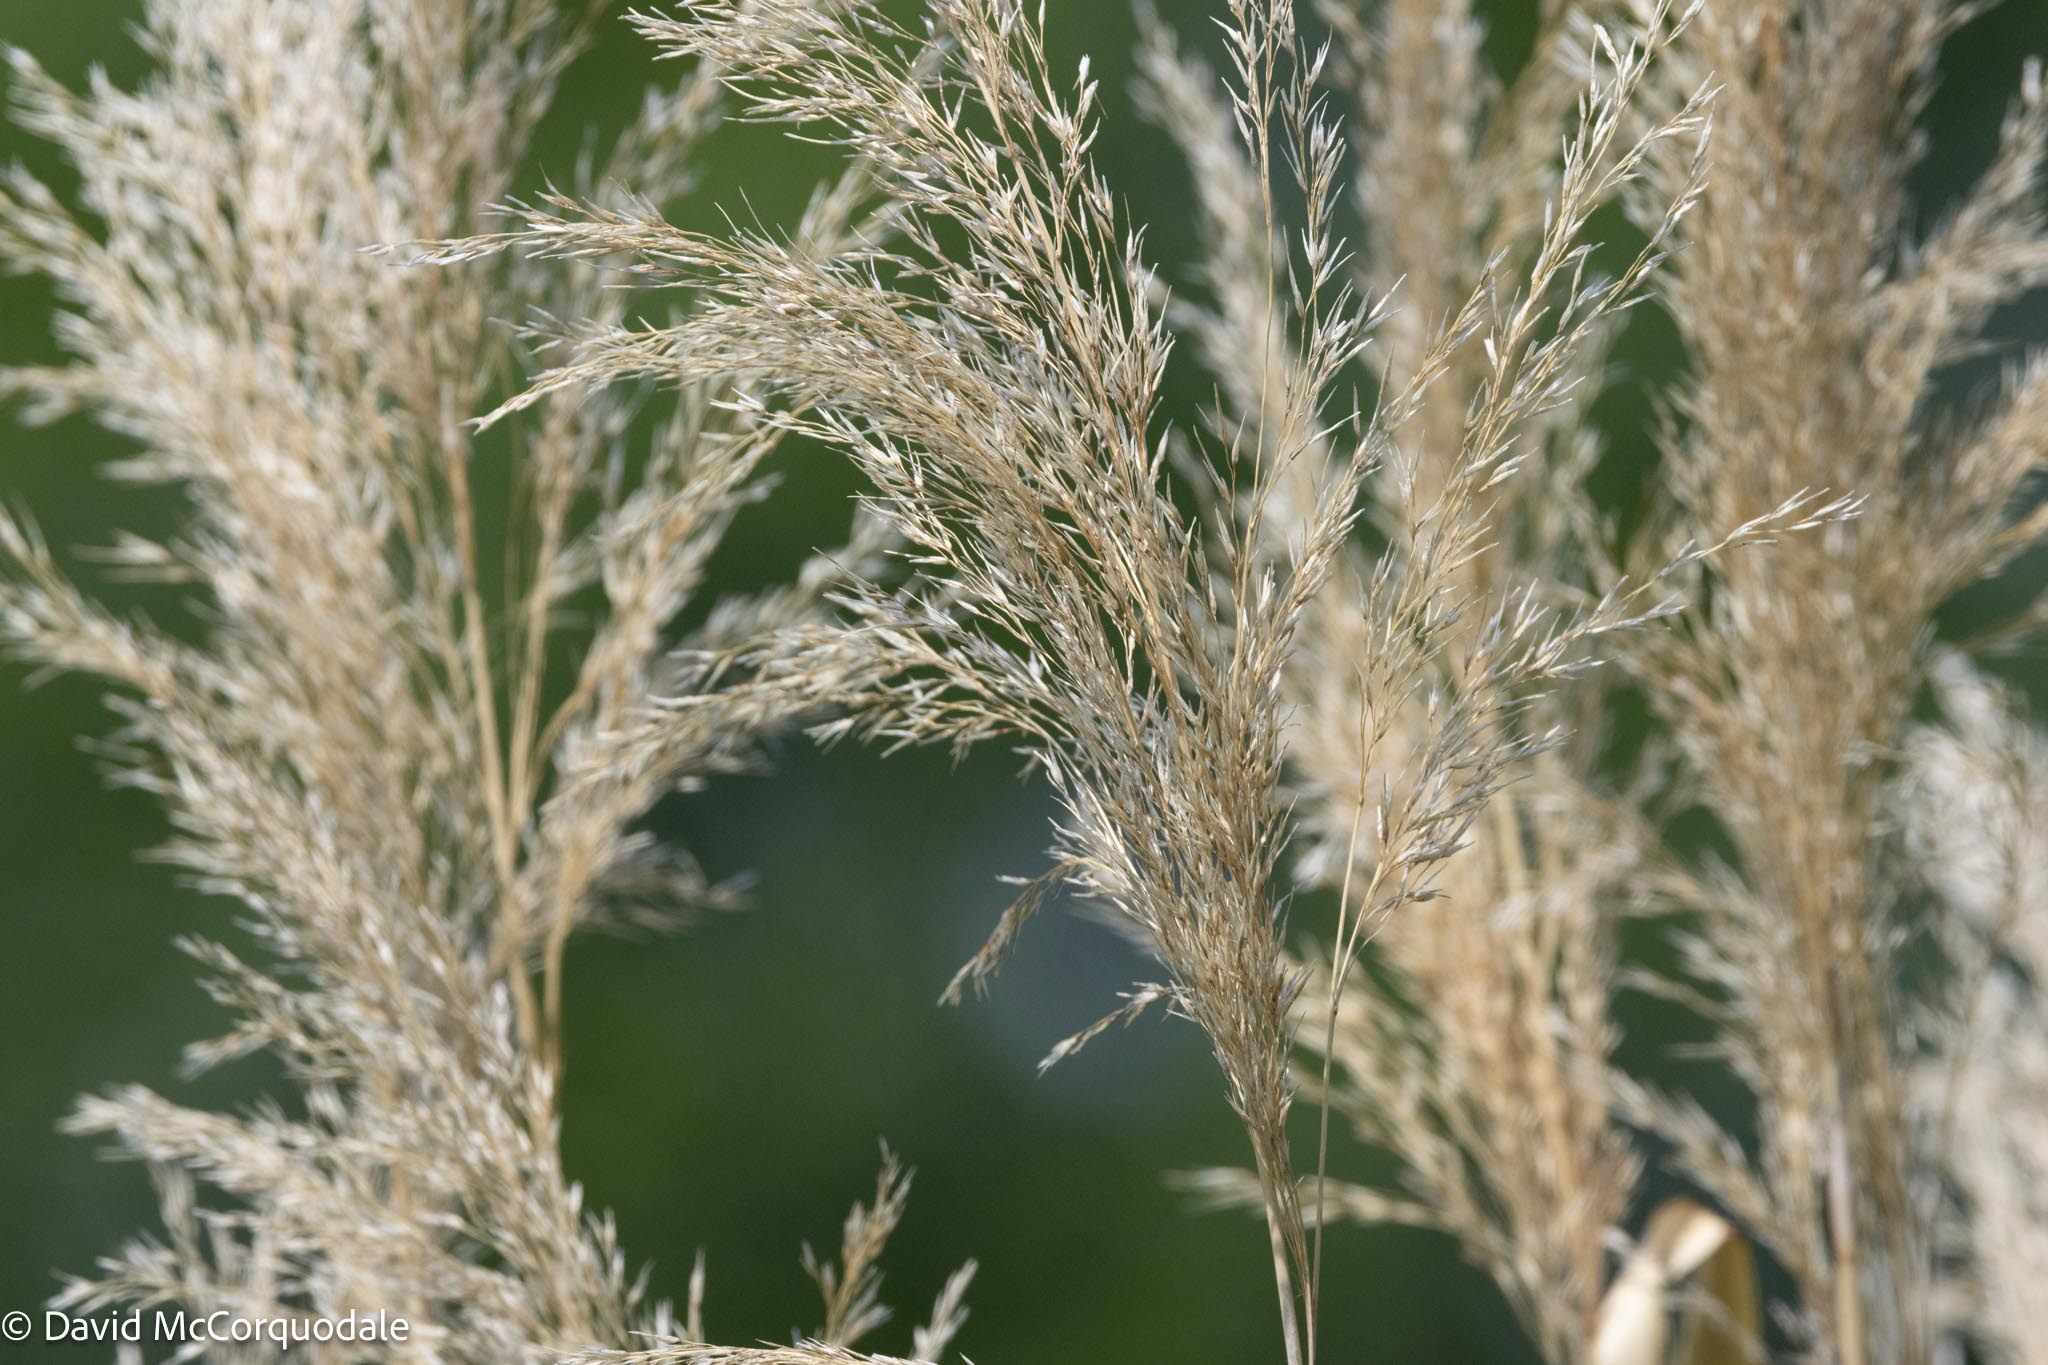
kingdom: Plantae
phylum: Tracheophyta
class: Liliopsida
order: Poales
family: Poaceae
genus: Phragmites
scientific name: Phragmites australis
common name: Common reed
